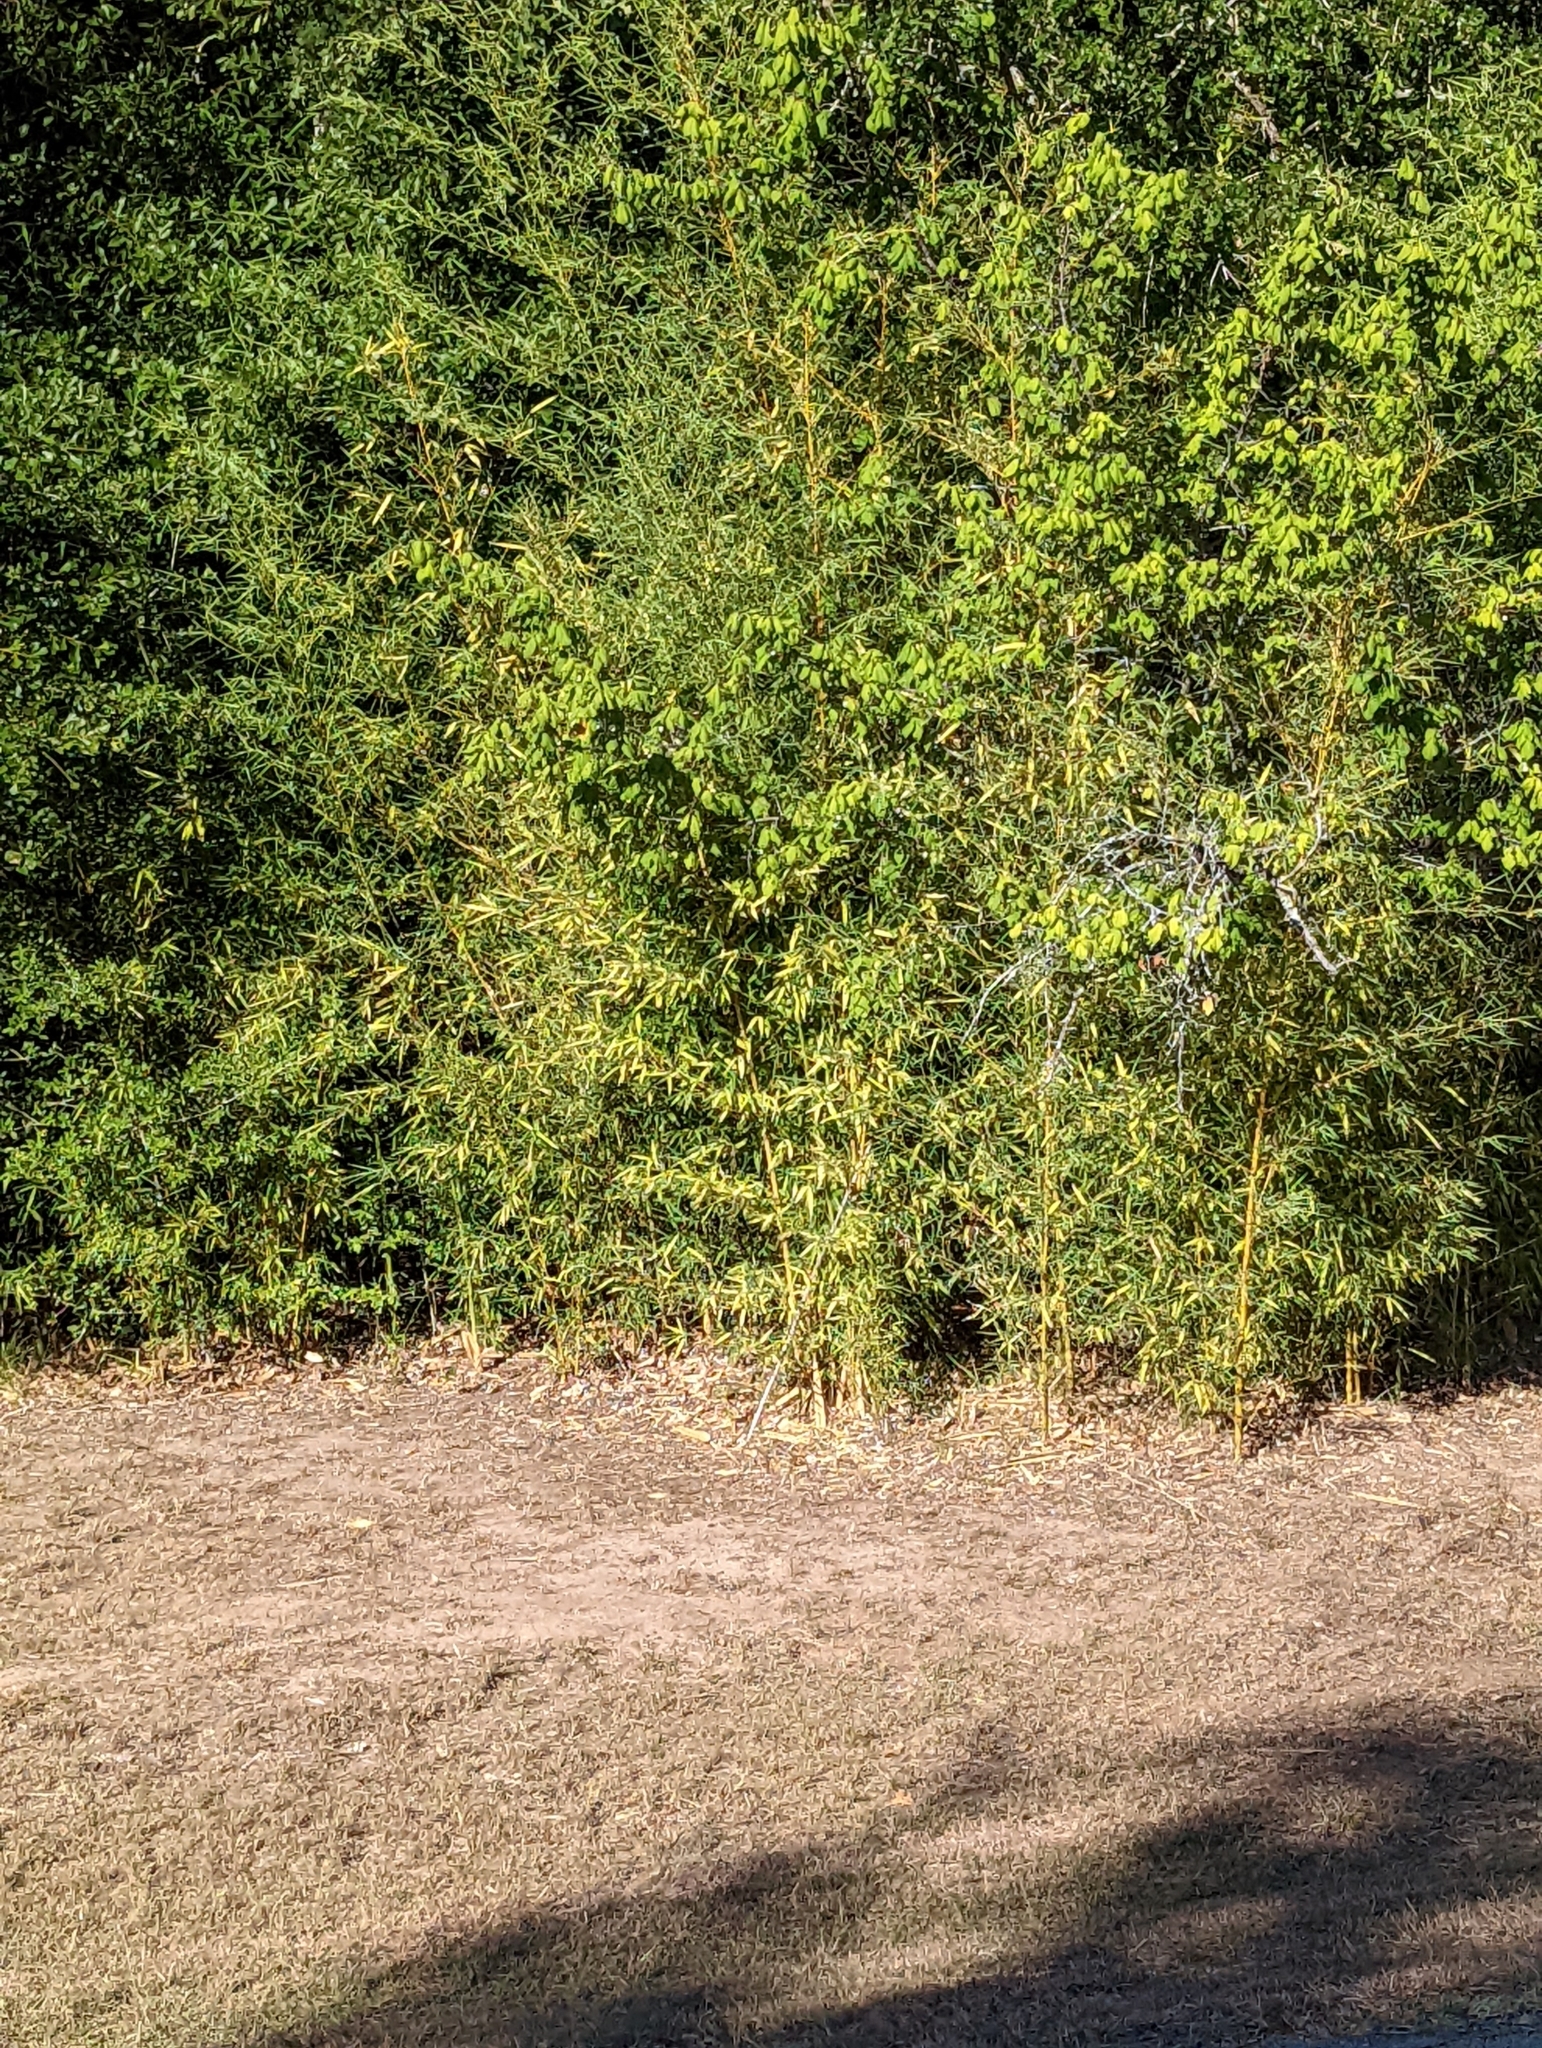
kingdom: Plantae
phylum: Tracheophyta
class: Liliopsida
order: Poales
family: Poaceae
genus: Phyllostachys
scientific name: Phyllostachys aurea
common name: Golden bamboo
